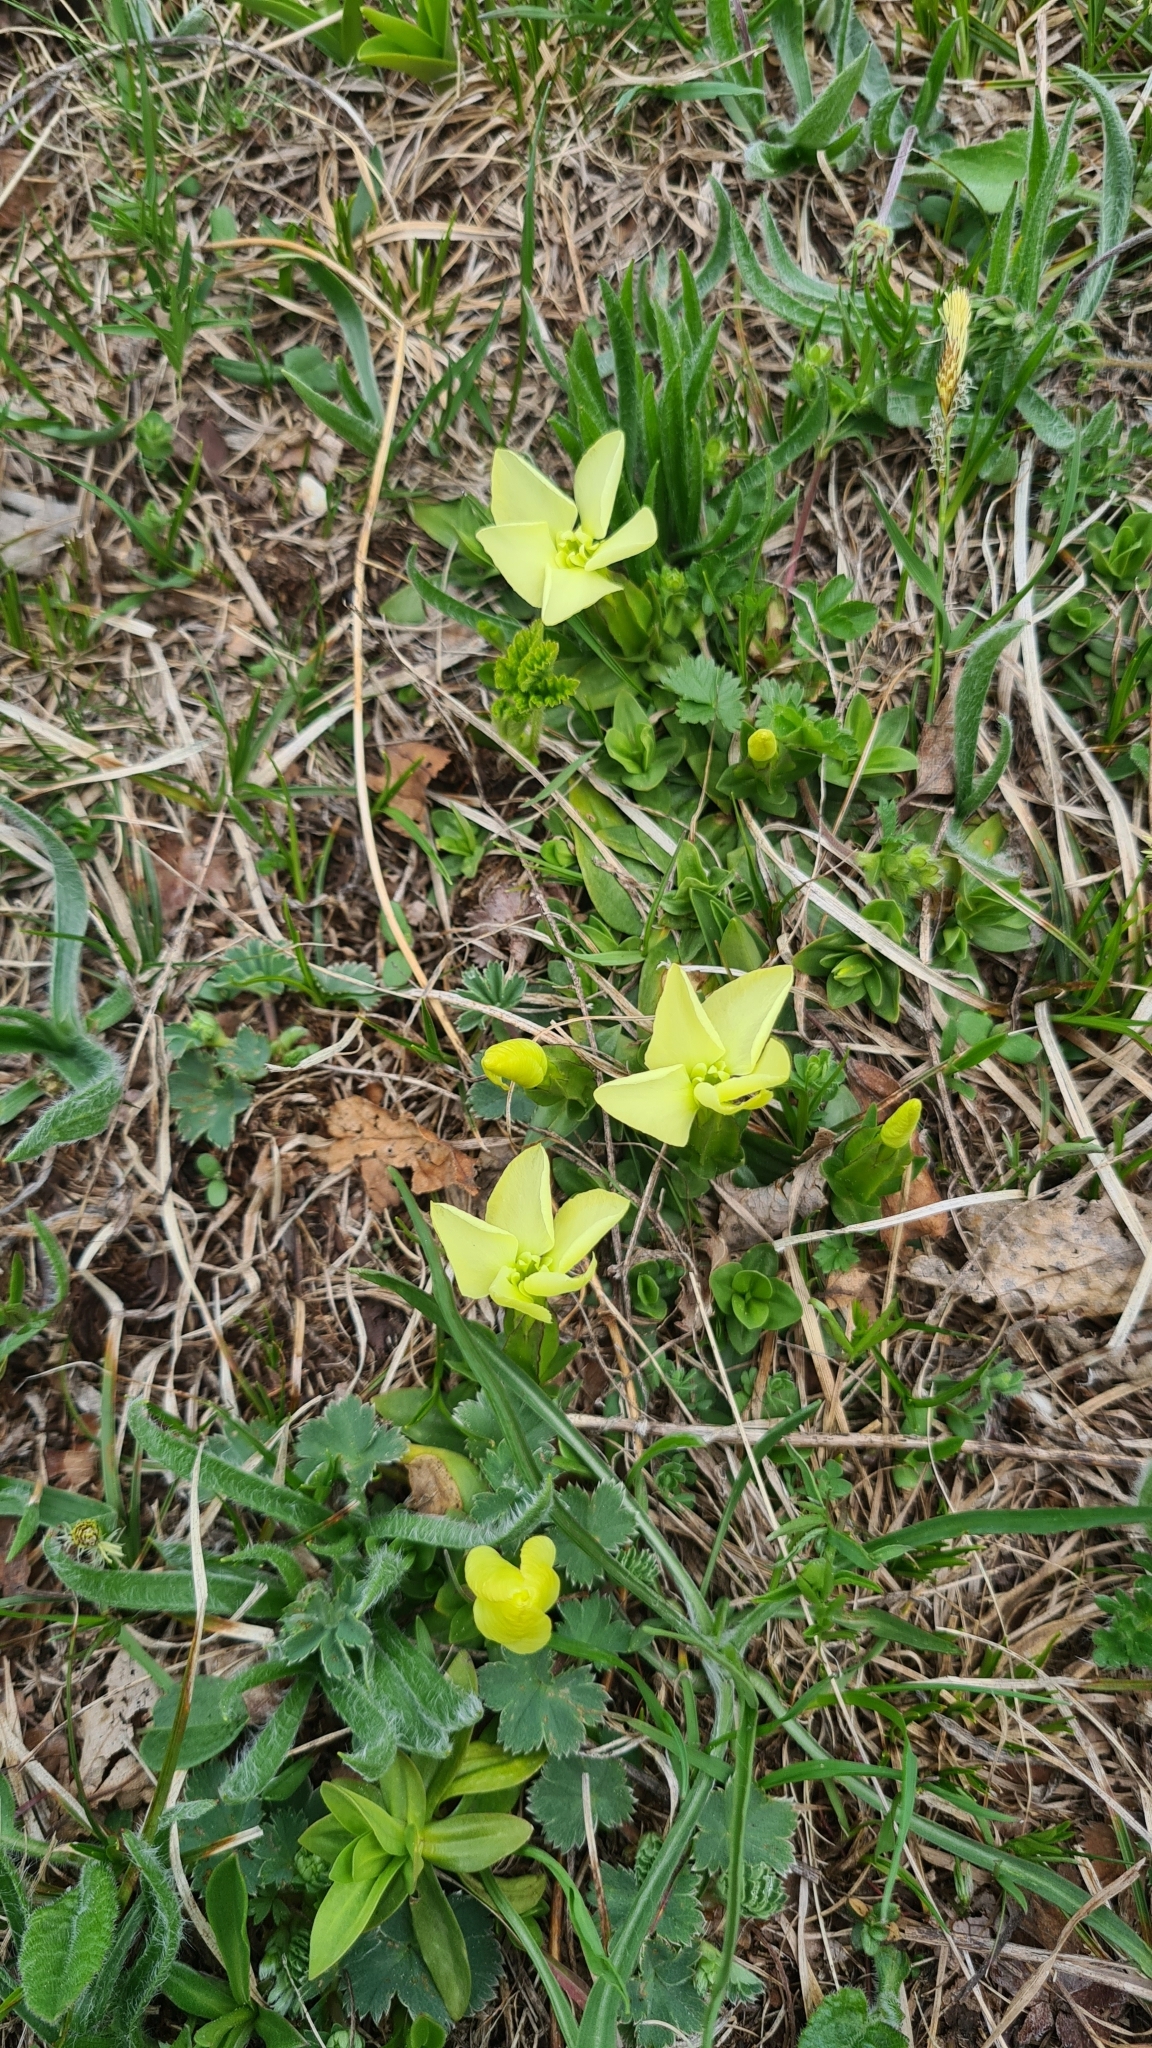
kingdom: Plantae
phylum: Tracheophyta
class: Magnoliopsida
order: Gentianales
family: Gentianaceae
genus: Gentiana
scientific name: Gentiana verna
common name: Spring gentian
